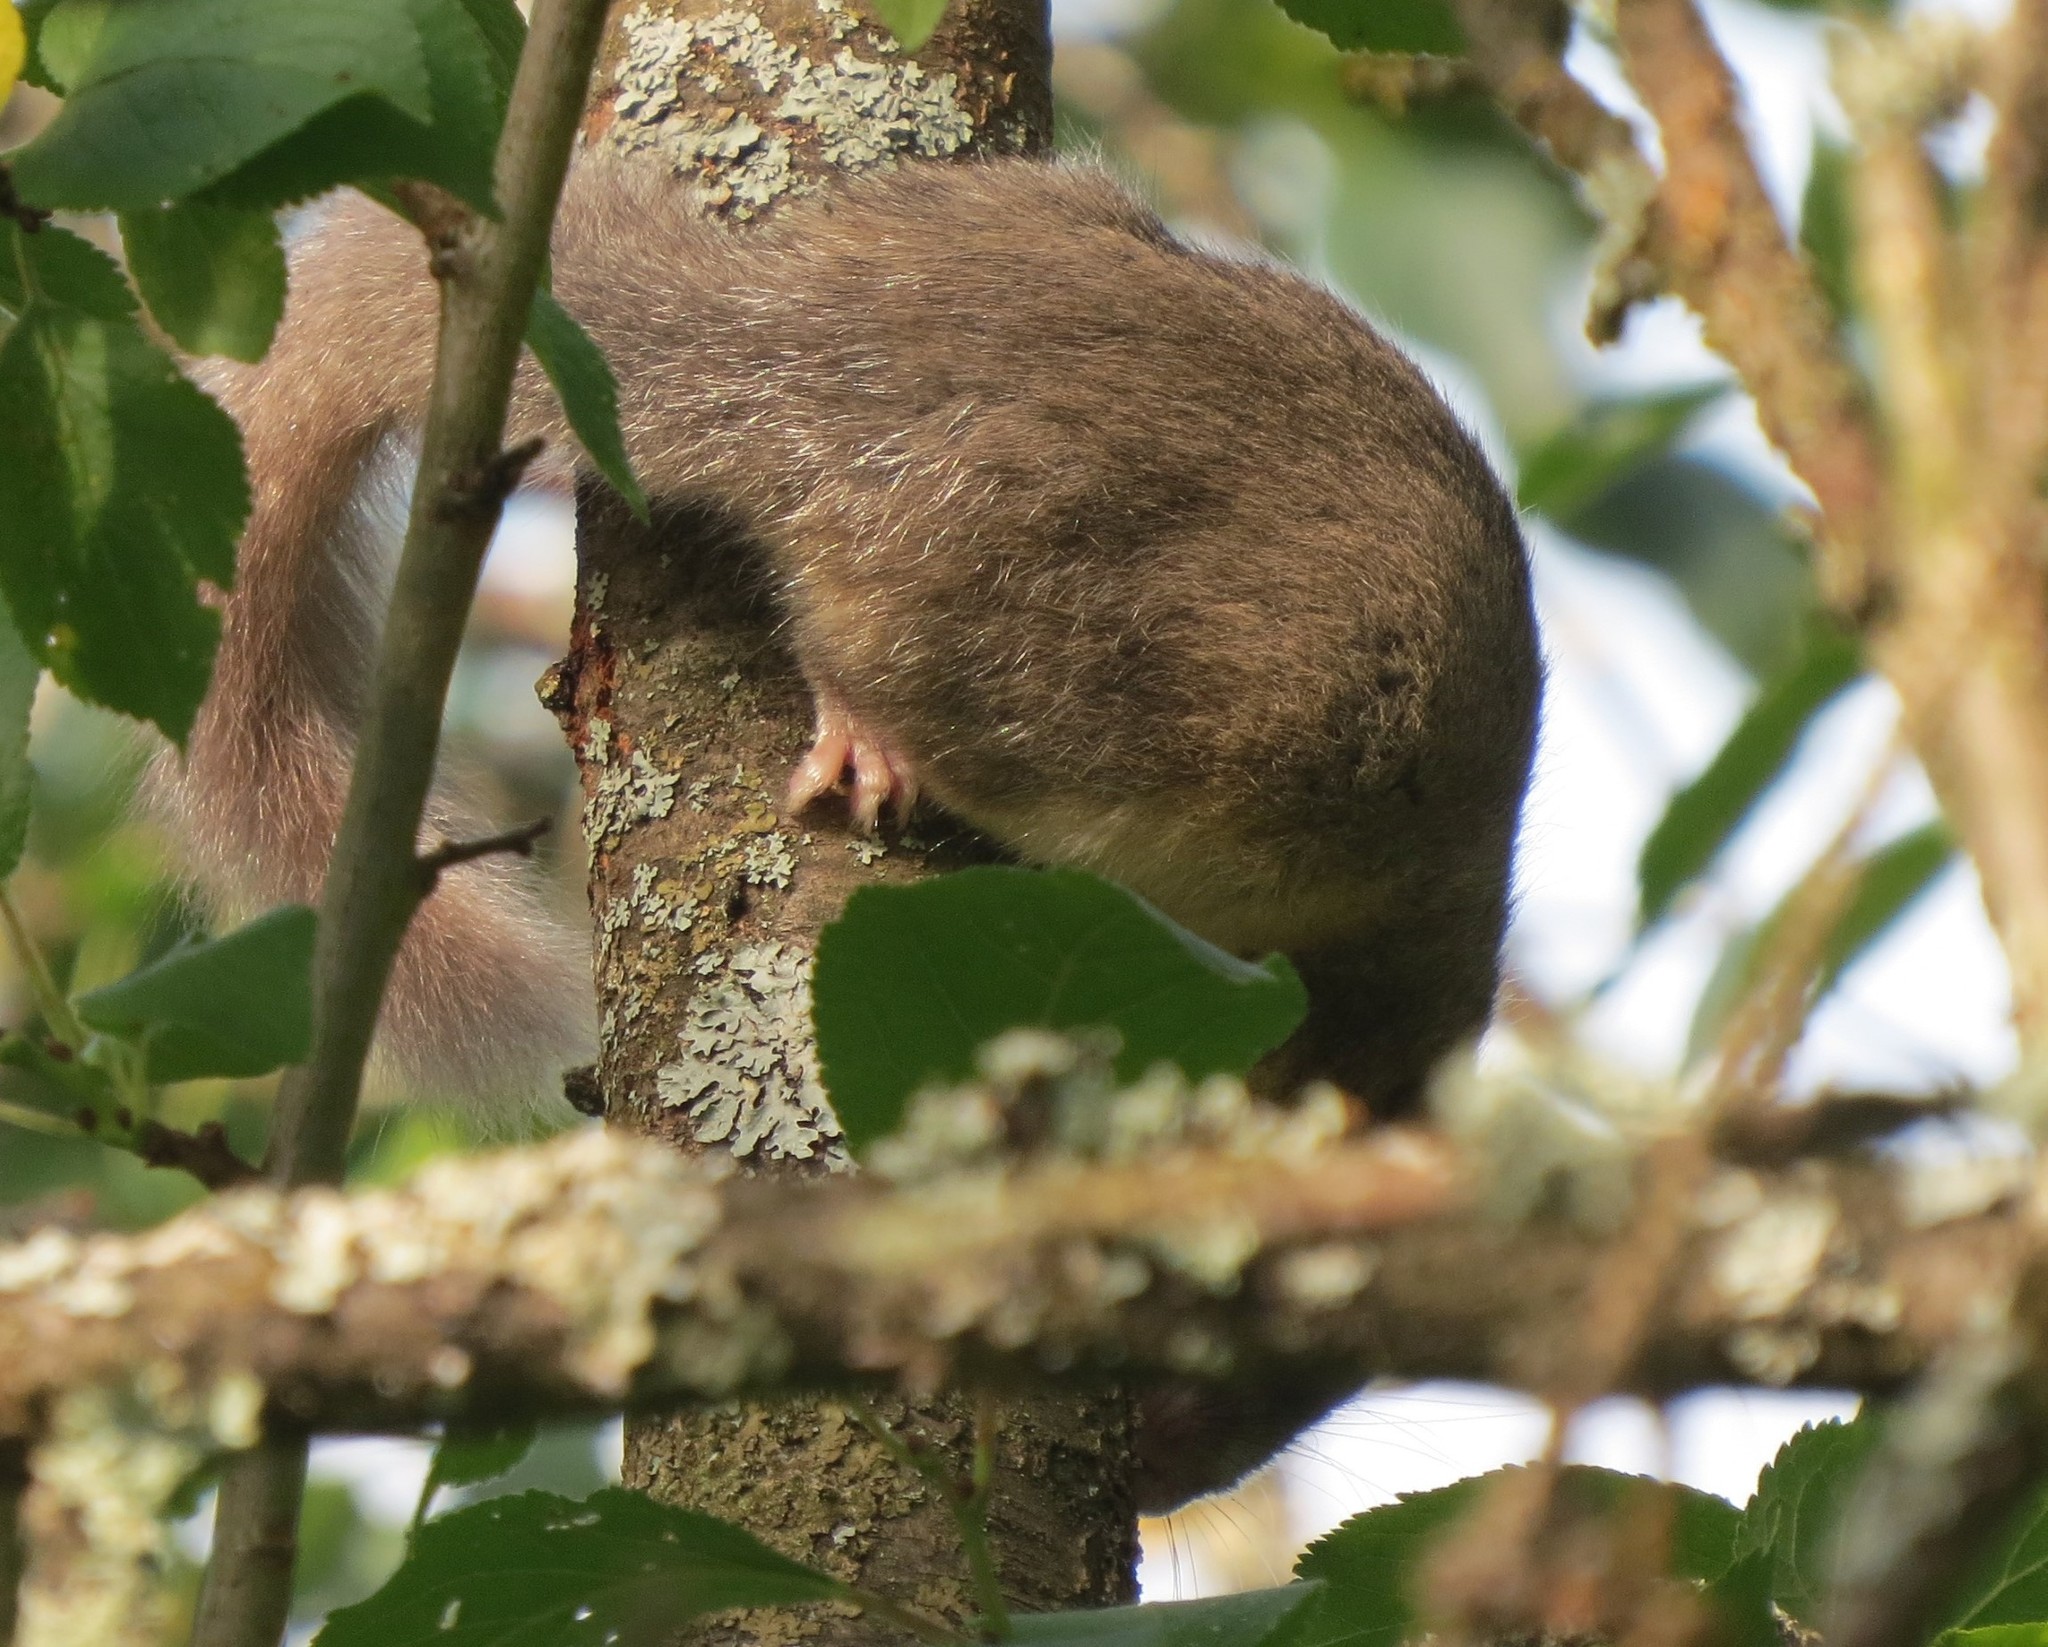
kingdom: Animalia
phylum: Chordata
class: Mammalia
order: Rodentia
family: Gliridae
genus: Glis
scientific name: Glis glis
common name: Fat dormouse
